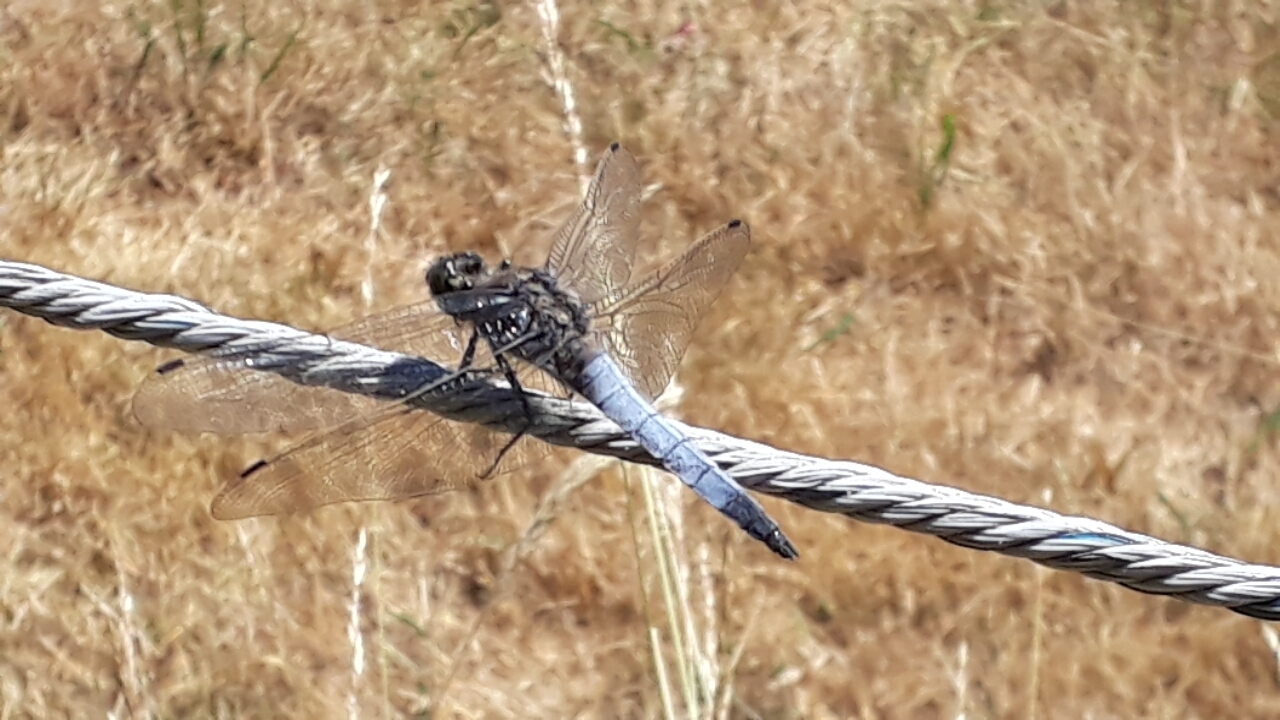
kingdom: Animalia
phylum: Arthropoda
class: Insecta
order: Odonata
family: Libellulidae
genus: Orthetrum
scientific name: Orthetrum cancellatum
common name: Black-tailed skimmer
